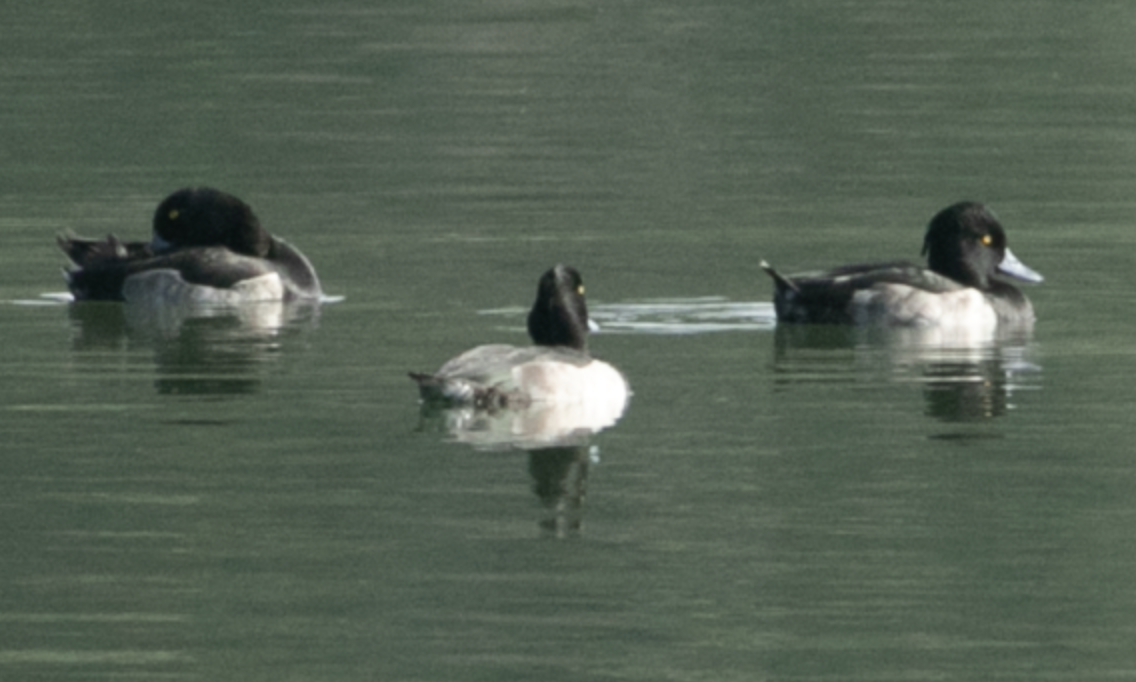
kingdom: Animalia
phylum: Chordata
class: Aves
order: Anseriformes
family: Anatidae
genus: Aythya
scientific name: Aythya fuligula
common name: Tufted duck
